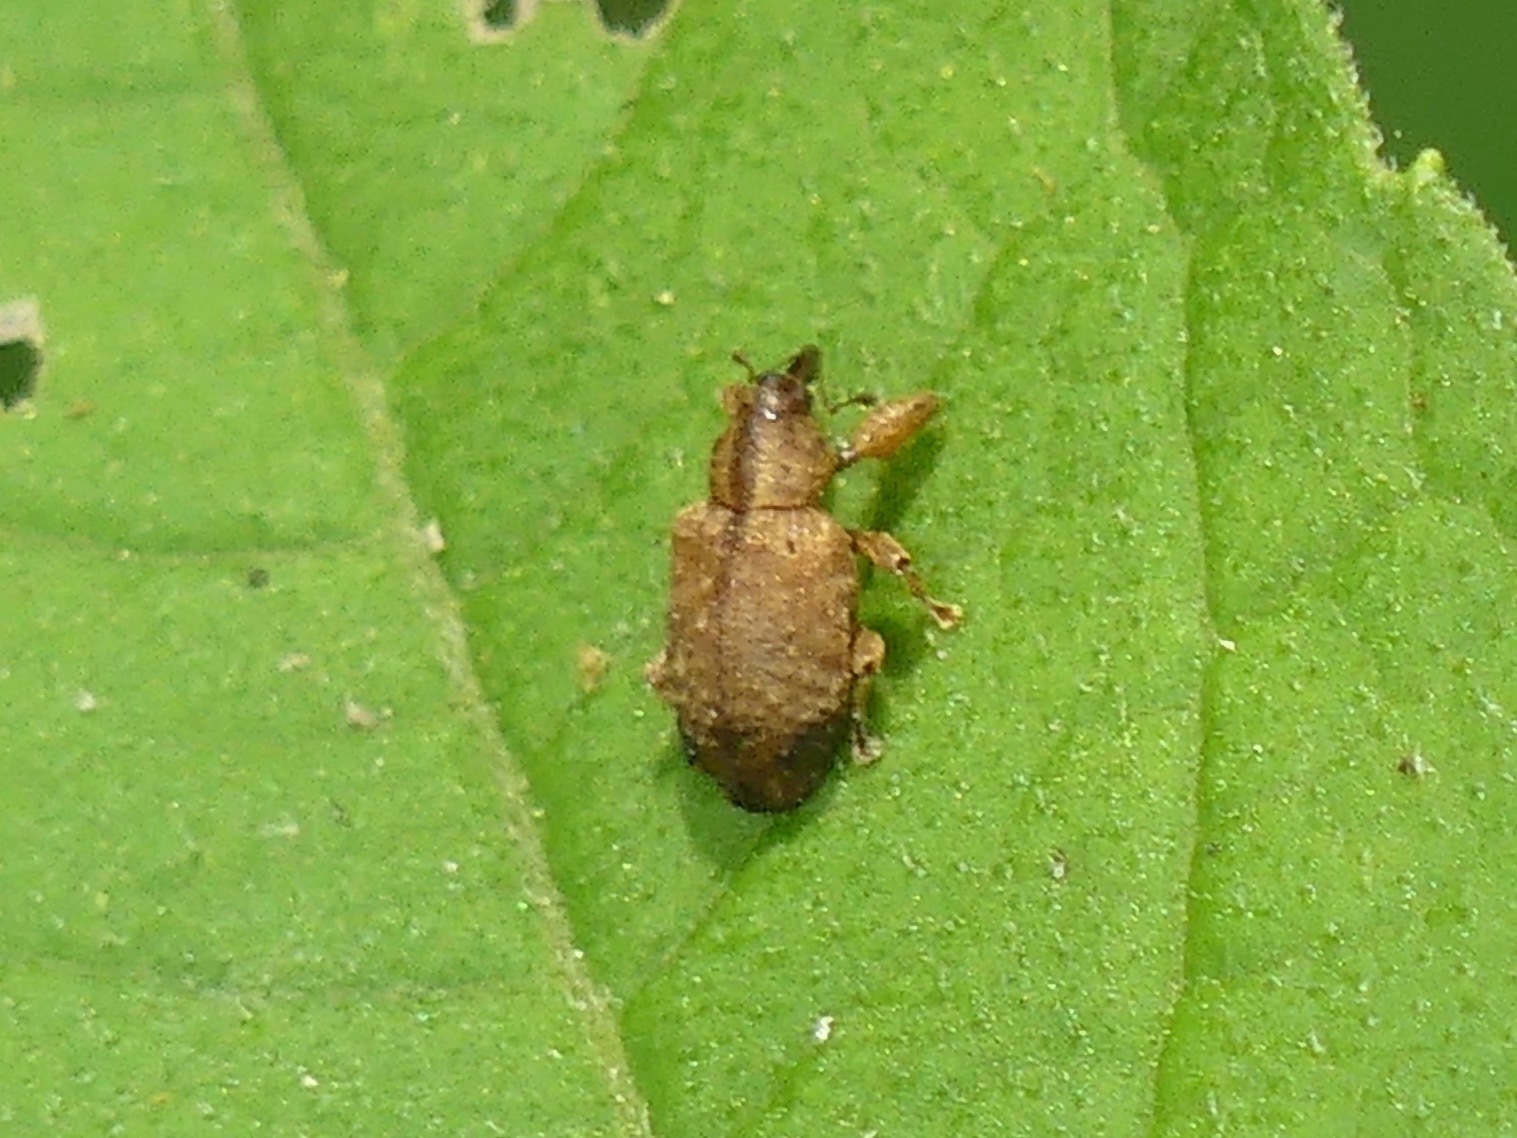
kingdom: Animalia
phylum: Arthropoda
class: Insecta
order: Coleoptera
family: Curculionidae
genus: Ochyromera
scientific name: Ochyromera ligustri
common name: Weevil
